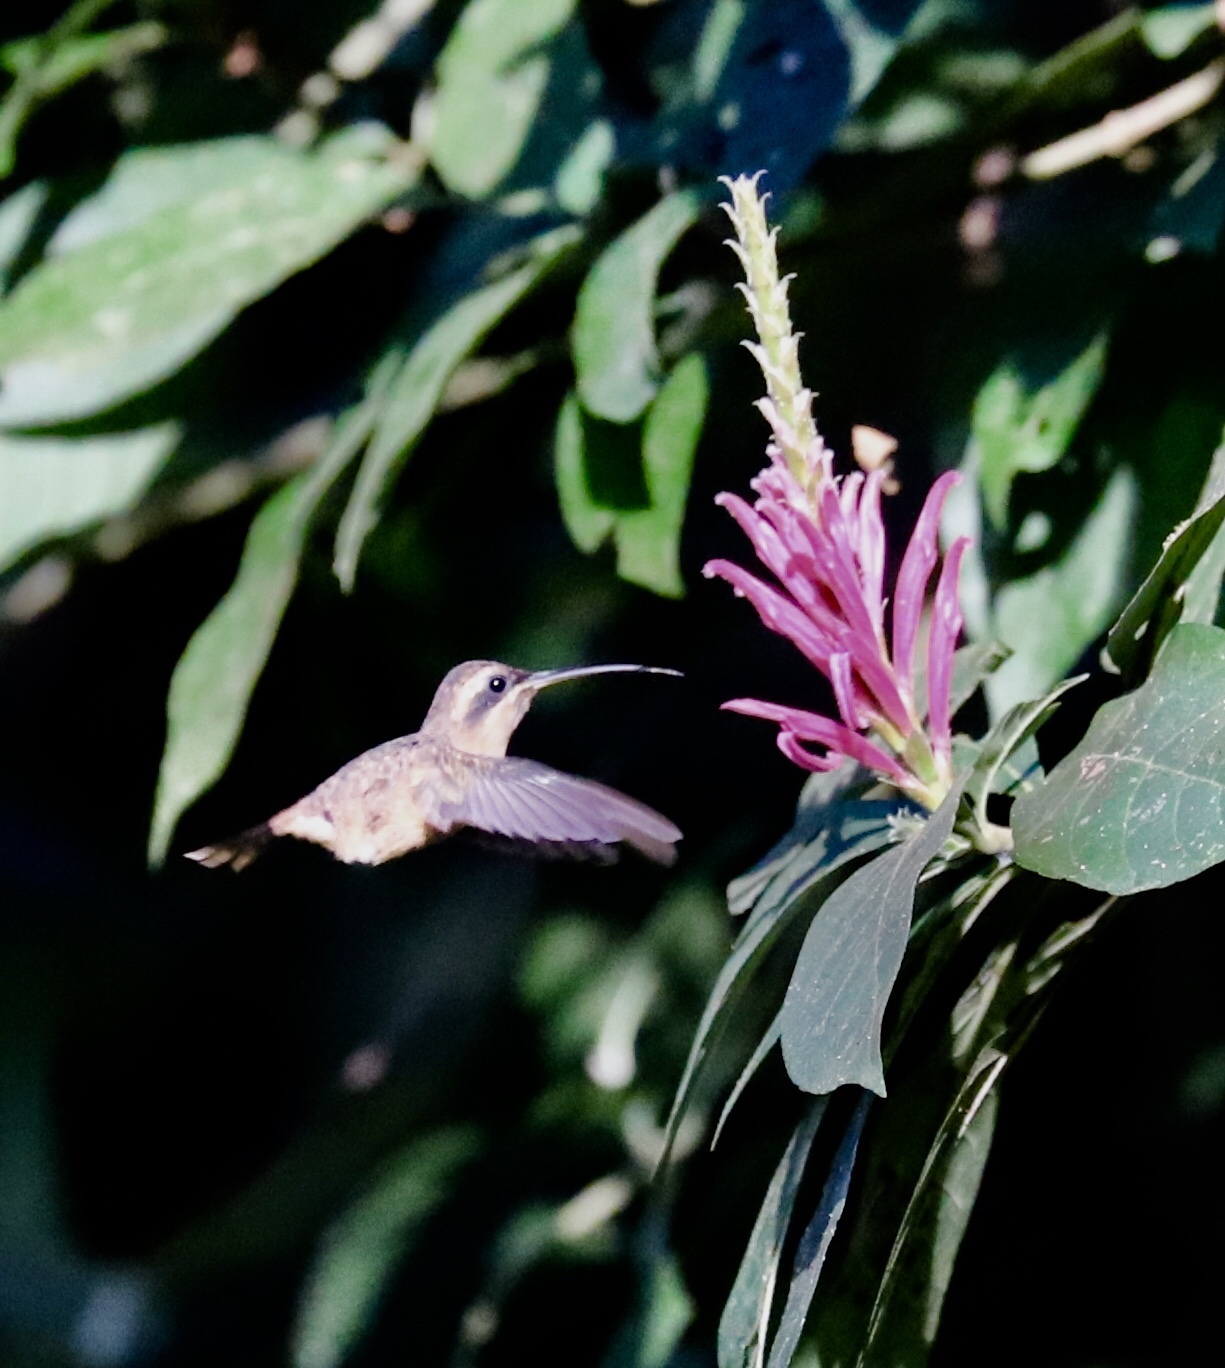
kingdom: Animalia
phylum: Chordata
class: Aves
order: Apodiformes
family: Trochilidae
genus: Phaethornis
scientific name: Phaethornis striigularis
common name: Stripe-throated hermit
